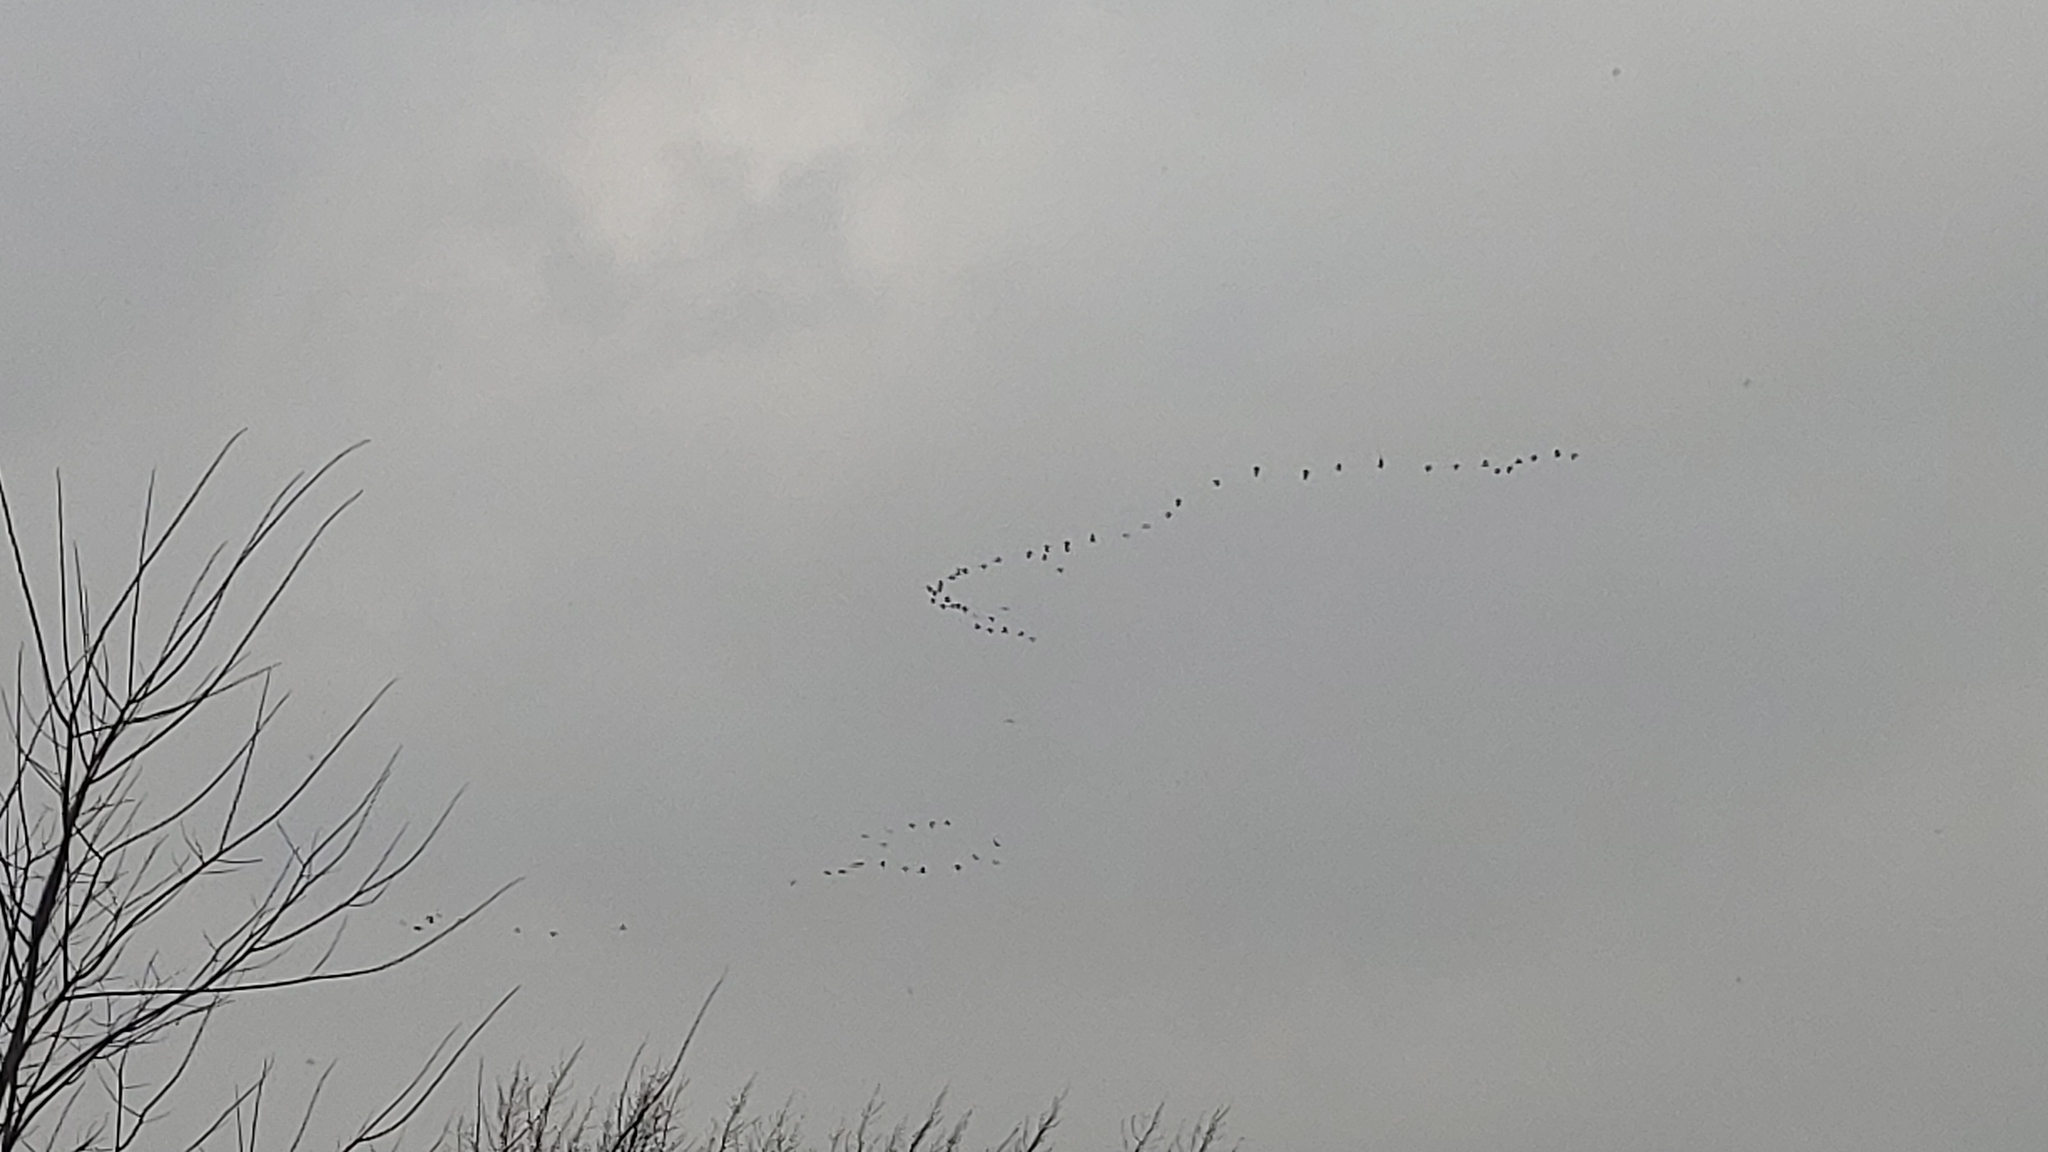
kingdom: Animalia
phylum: Chordata
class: Aves
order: Gruiformes
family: Gruidae
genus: Grus
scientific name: Grus canadensis
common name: Sandhill crane
